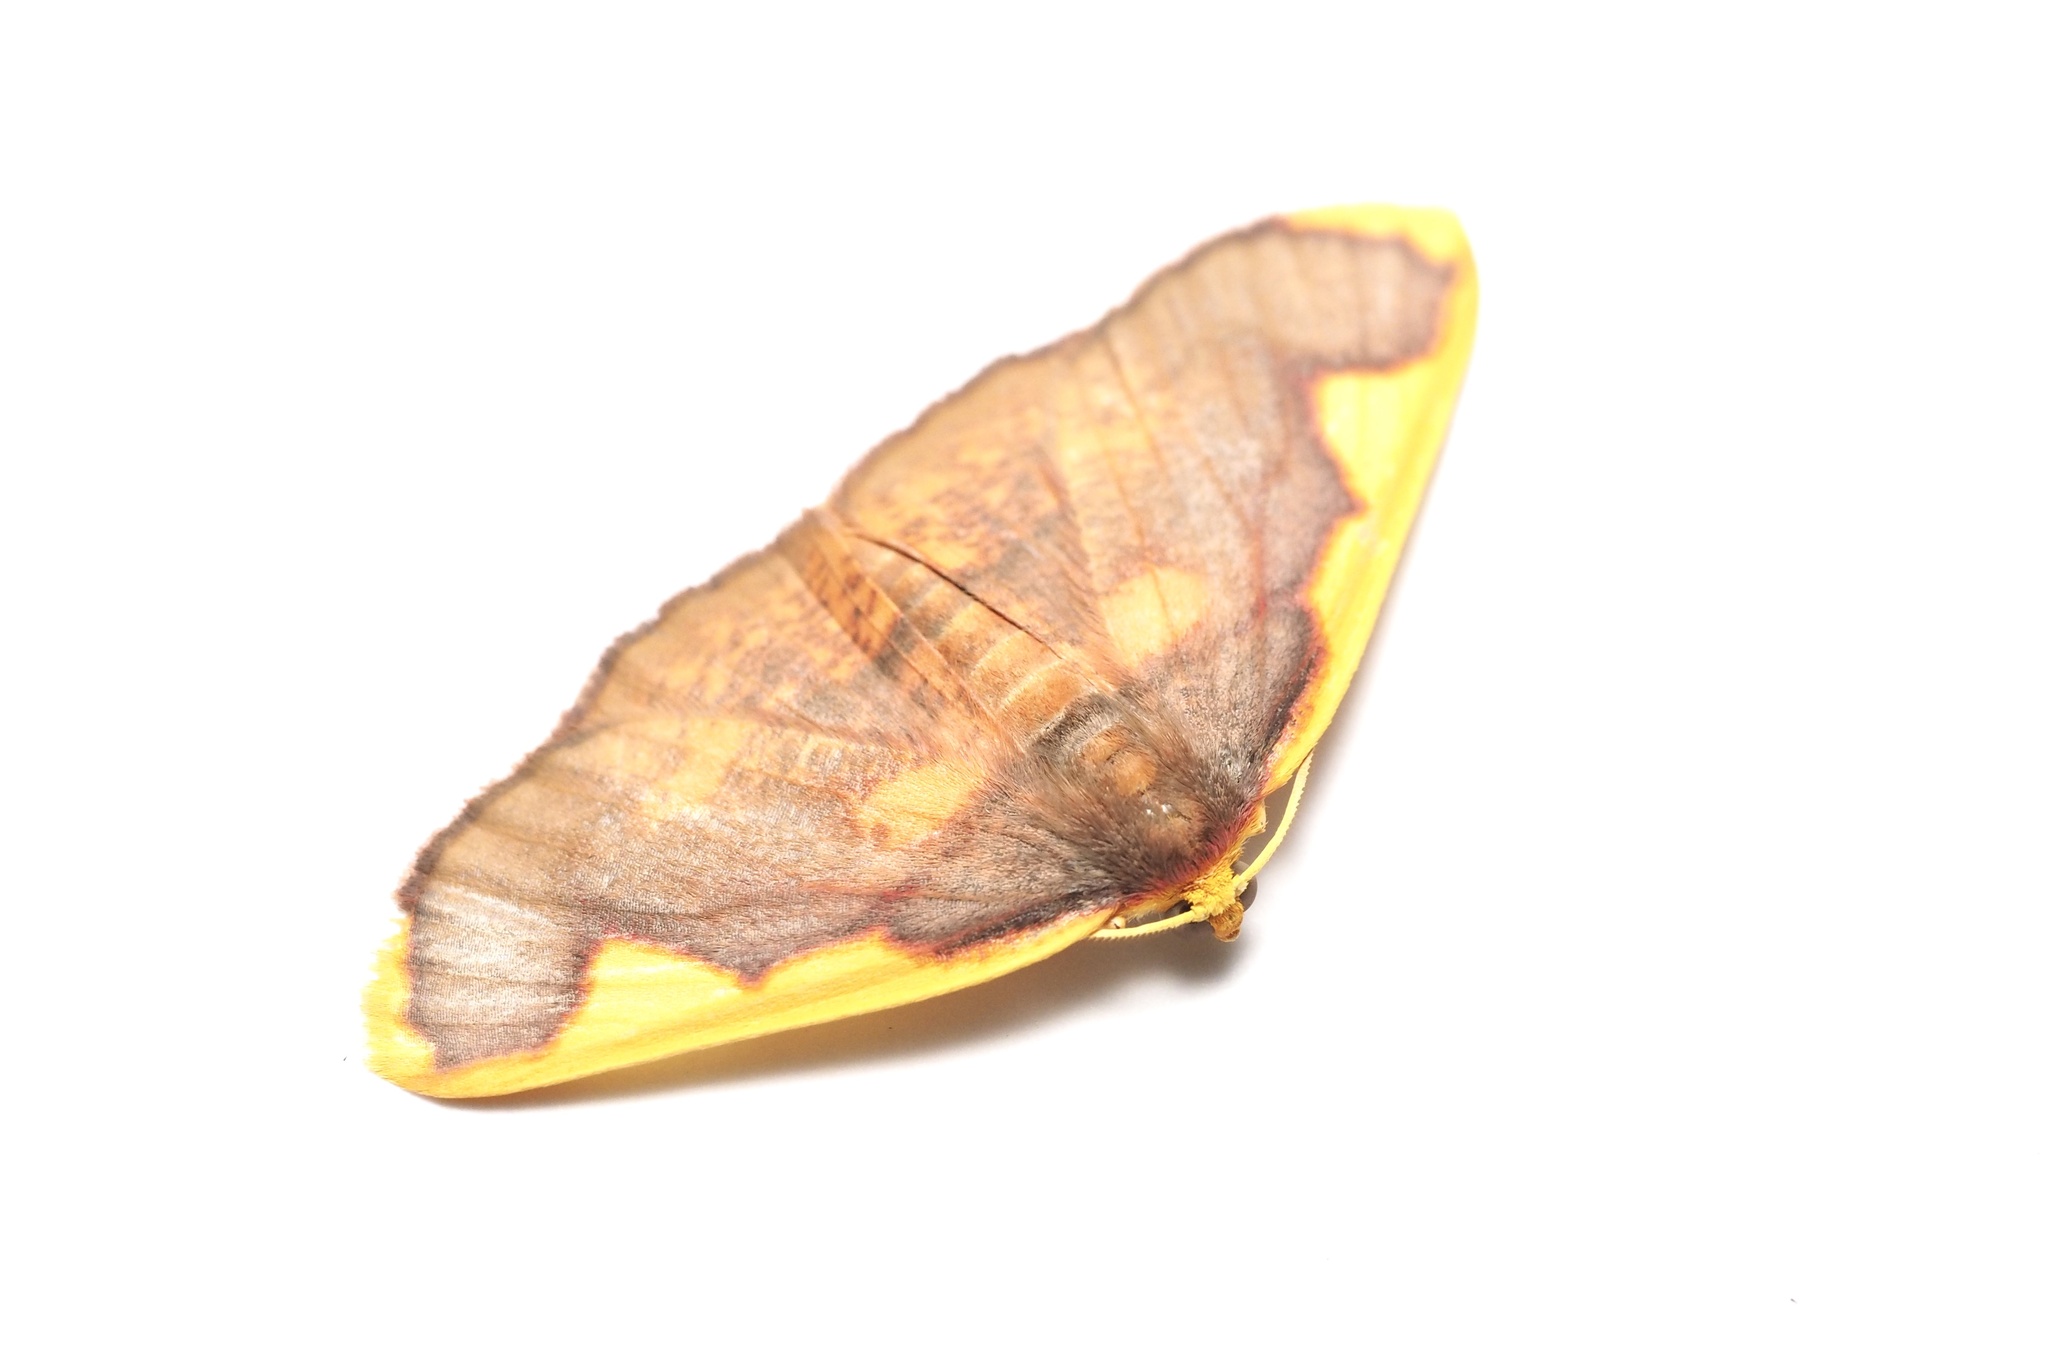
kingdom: Animalia
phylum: Arthropoda
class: Insecta
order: Lepidoptera
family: Geometridae
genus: Nothomiza
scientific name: Nothomiza formosa
